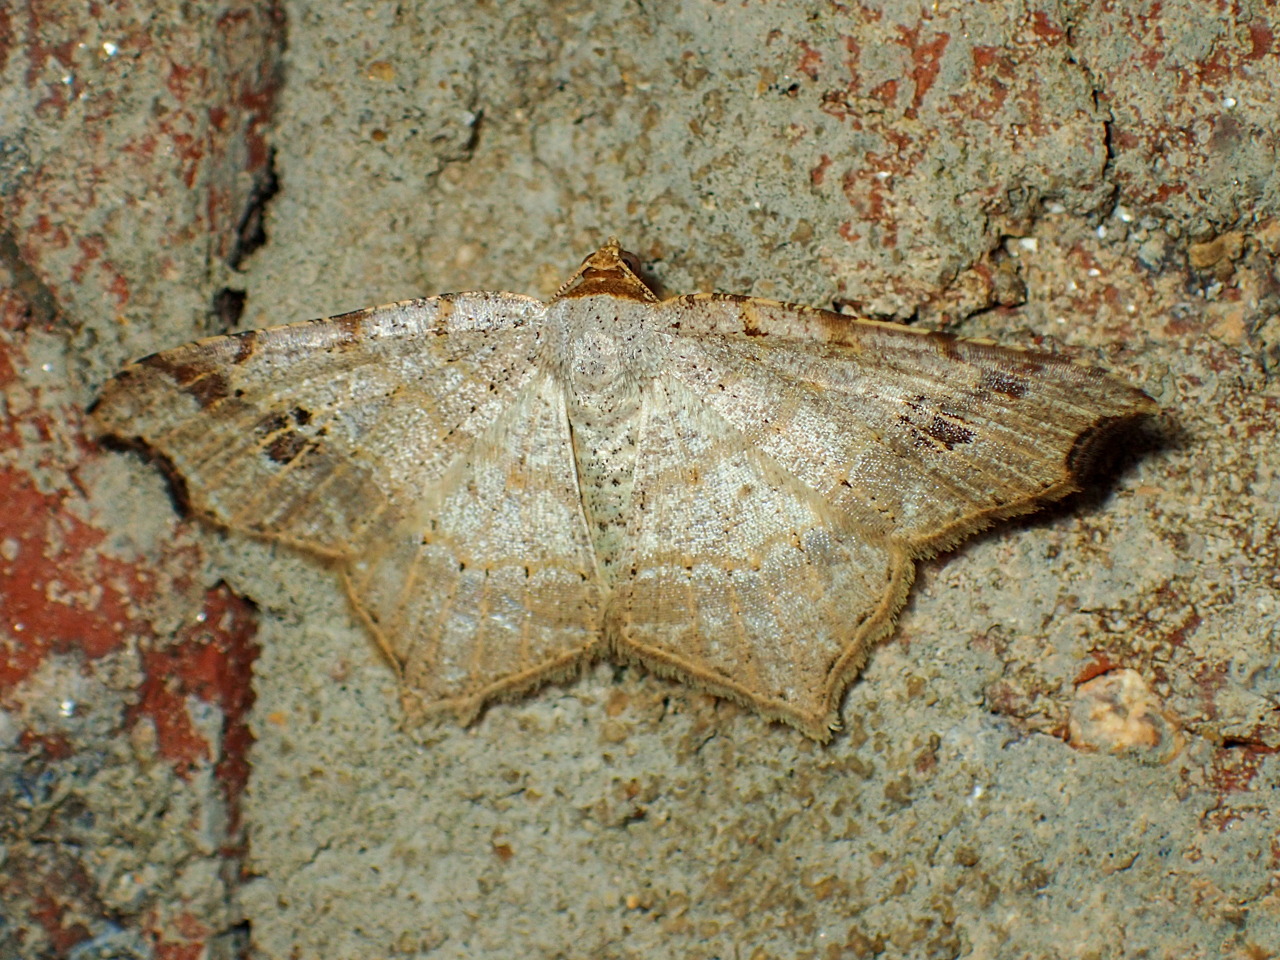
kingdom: Animalia
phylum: Arthropoda
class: Insecta
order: Lepidoptera
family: Geometridae
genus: Macaria
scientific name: Macaria aemulataria
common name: Common angle
